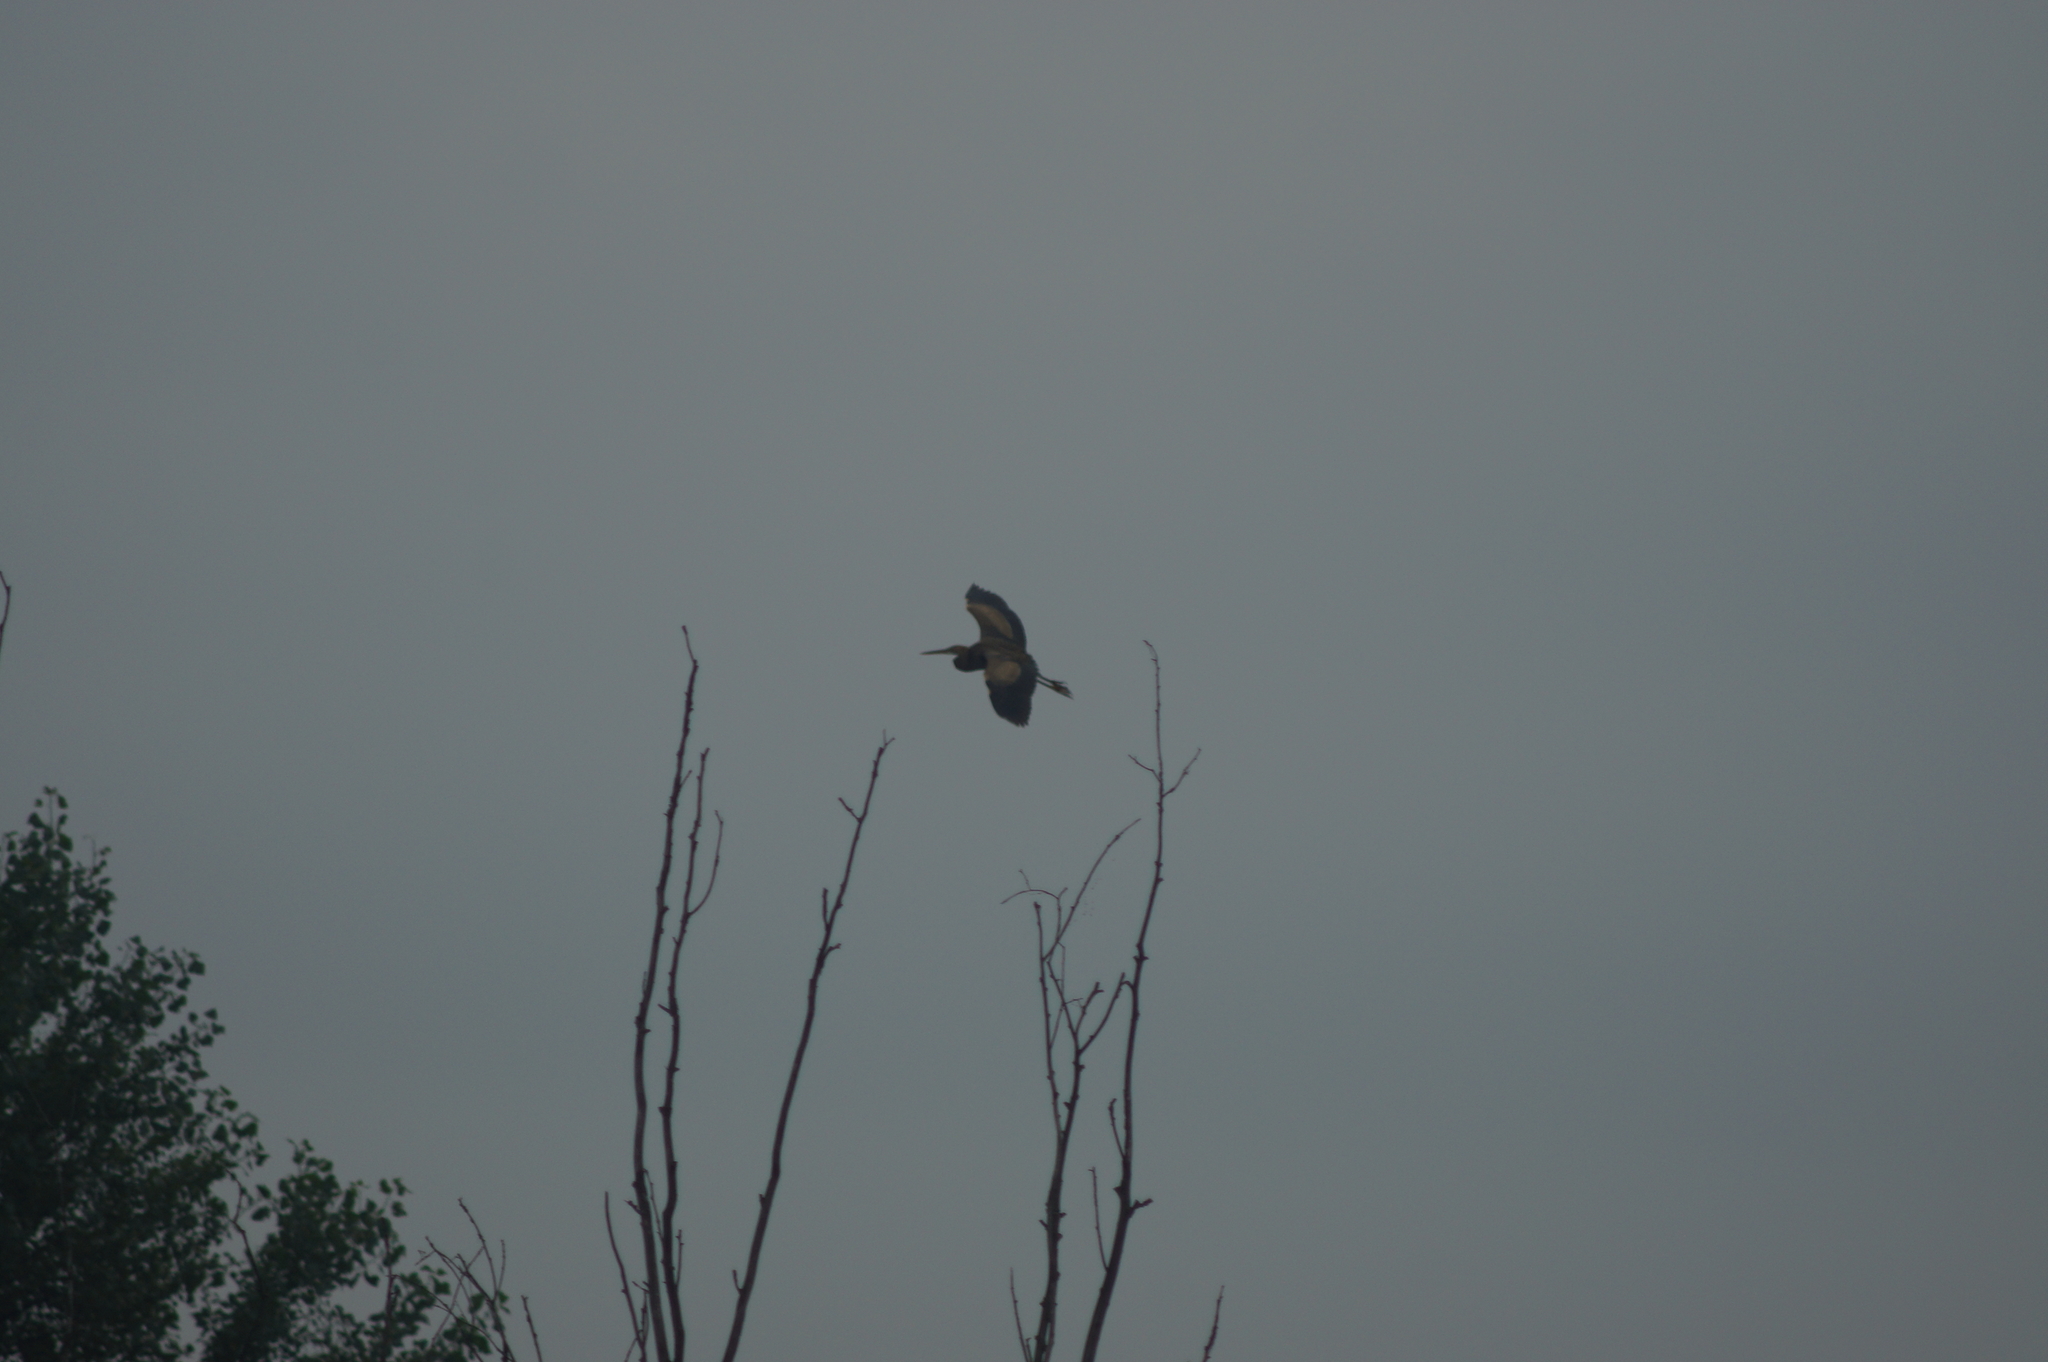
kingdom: Animalia
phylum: Chordata
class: Aves
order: Pelecaniformes
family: Ardeidae
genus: Ardea
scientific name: Ardea purpurea
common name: Purple heron
